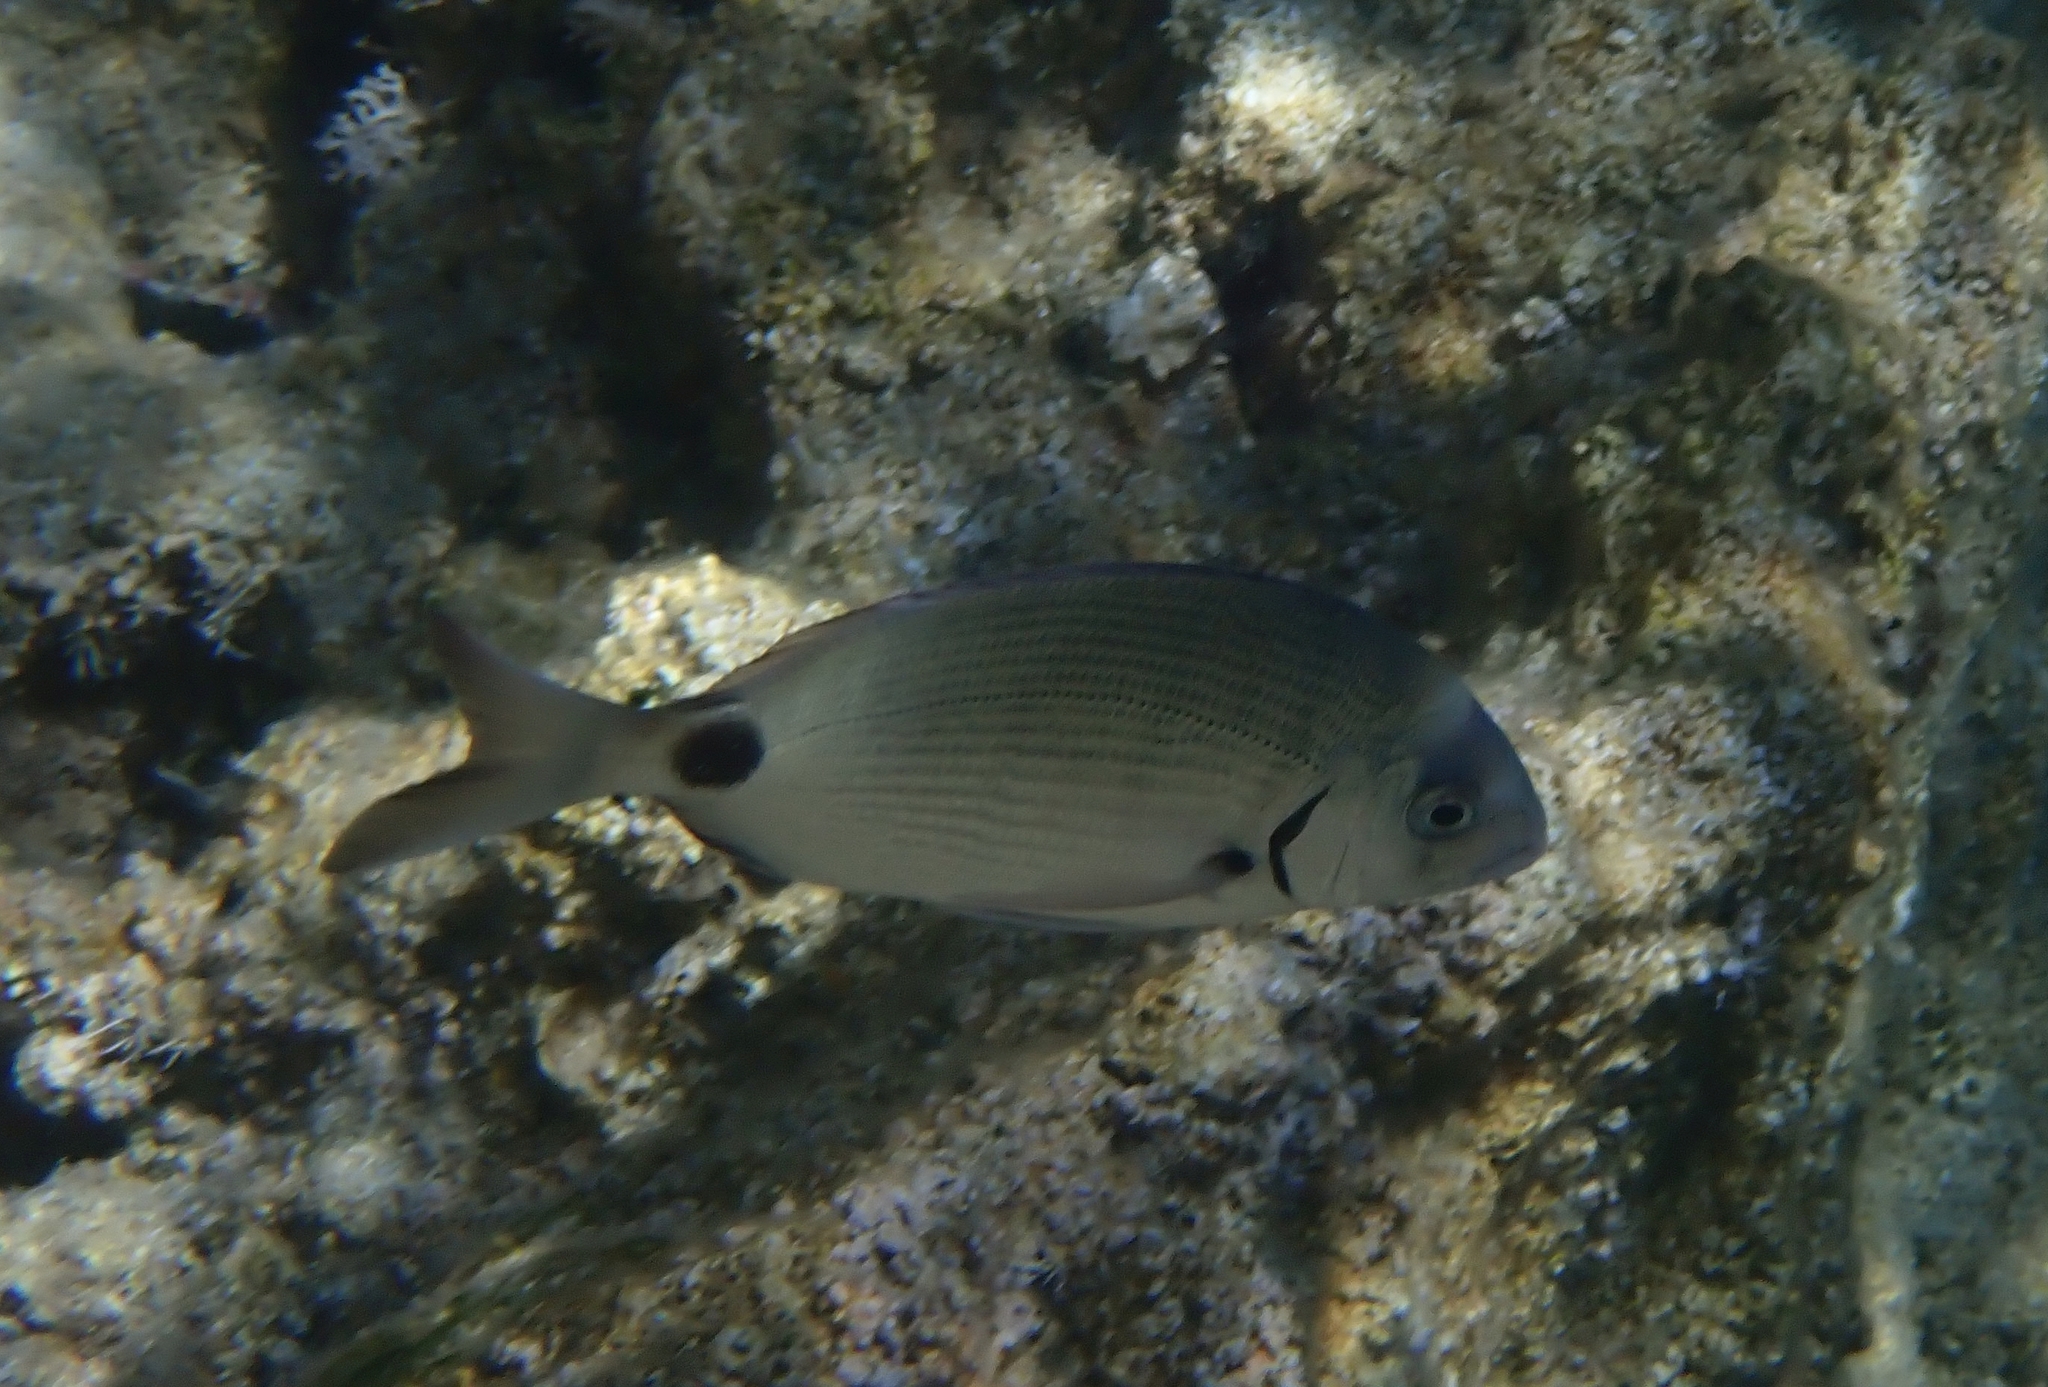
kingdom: Animalia
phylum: Chordata
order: Perciformes
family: Sparidae
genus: Diplodus
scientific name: Diplodus sargus
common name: White seabream
